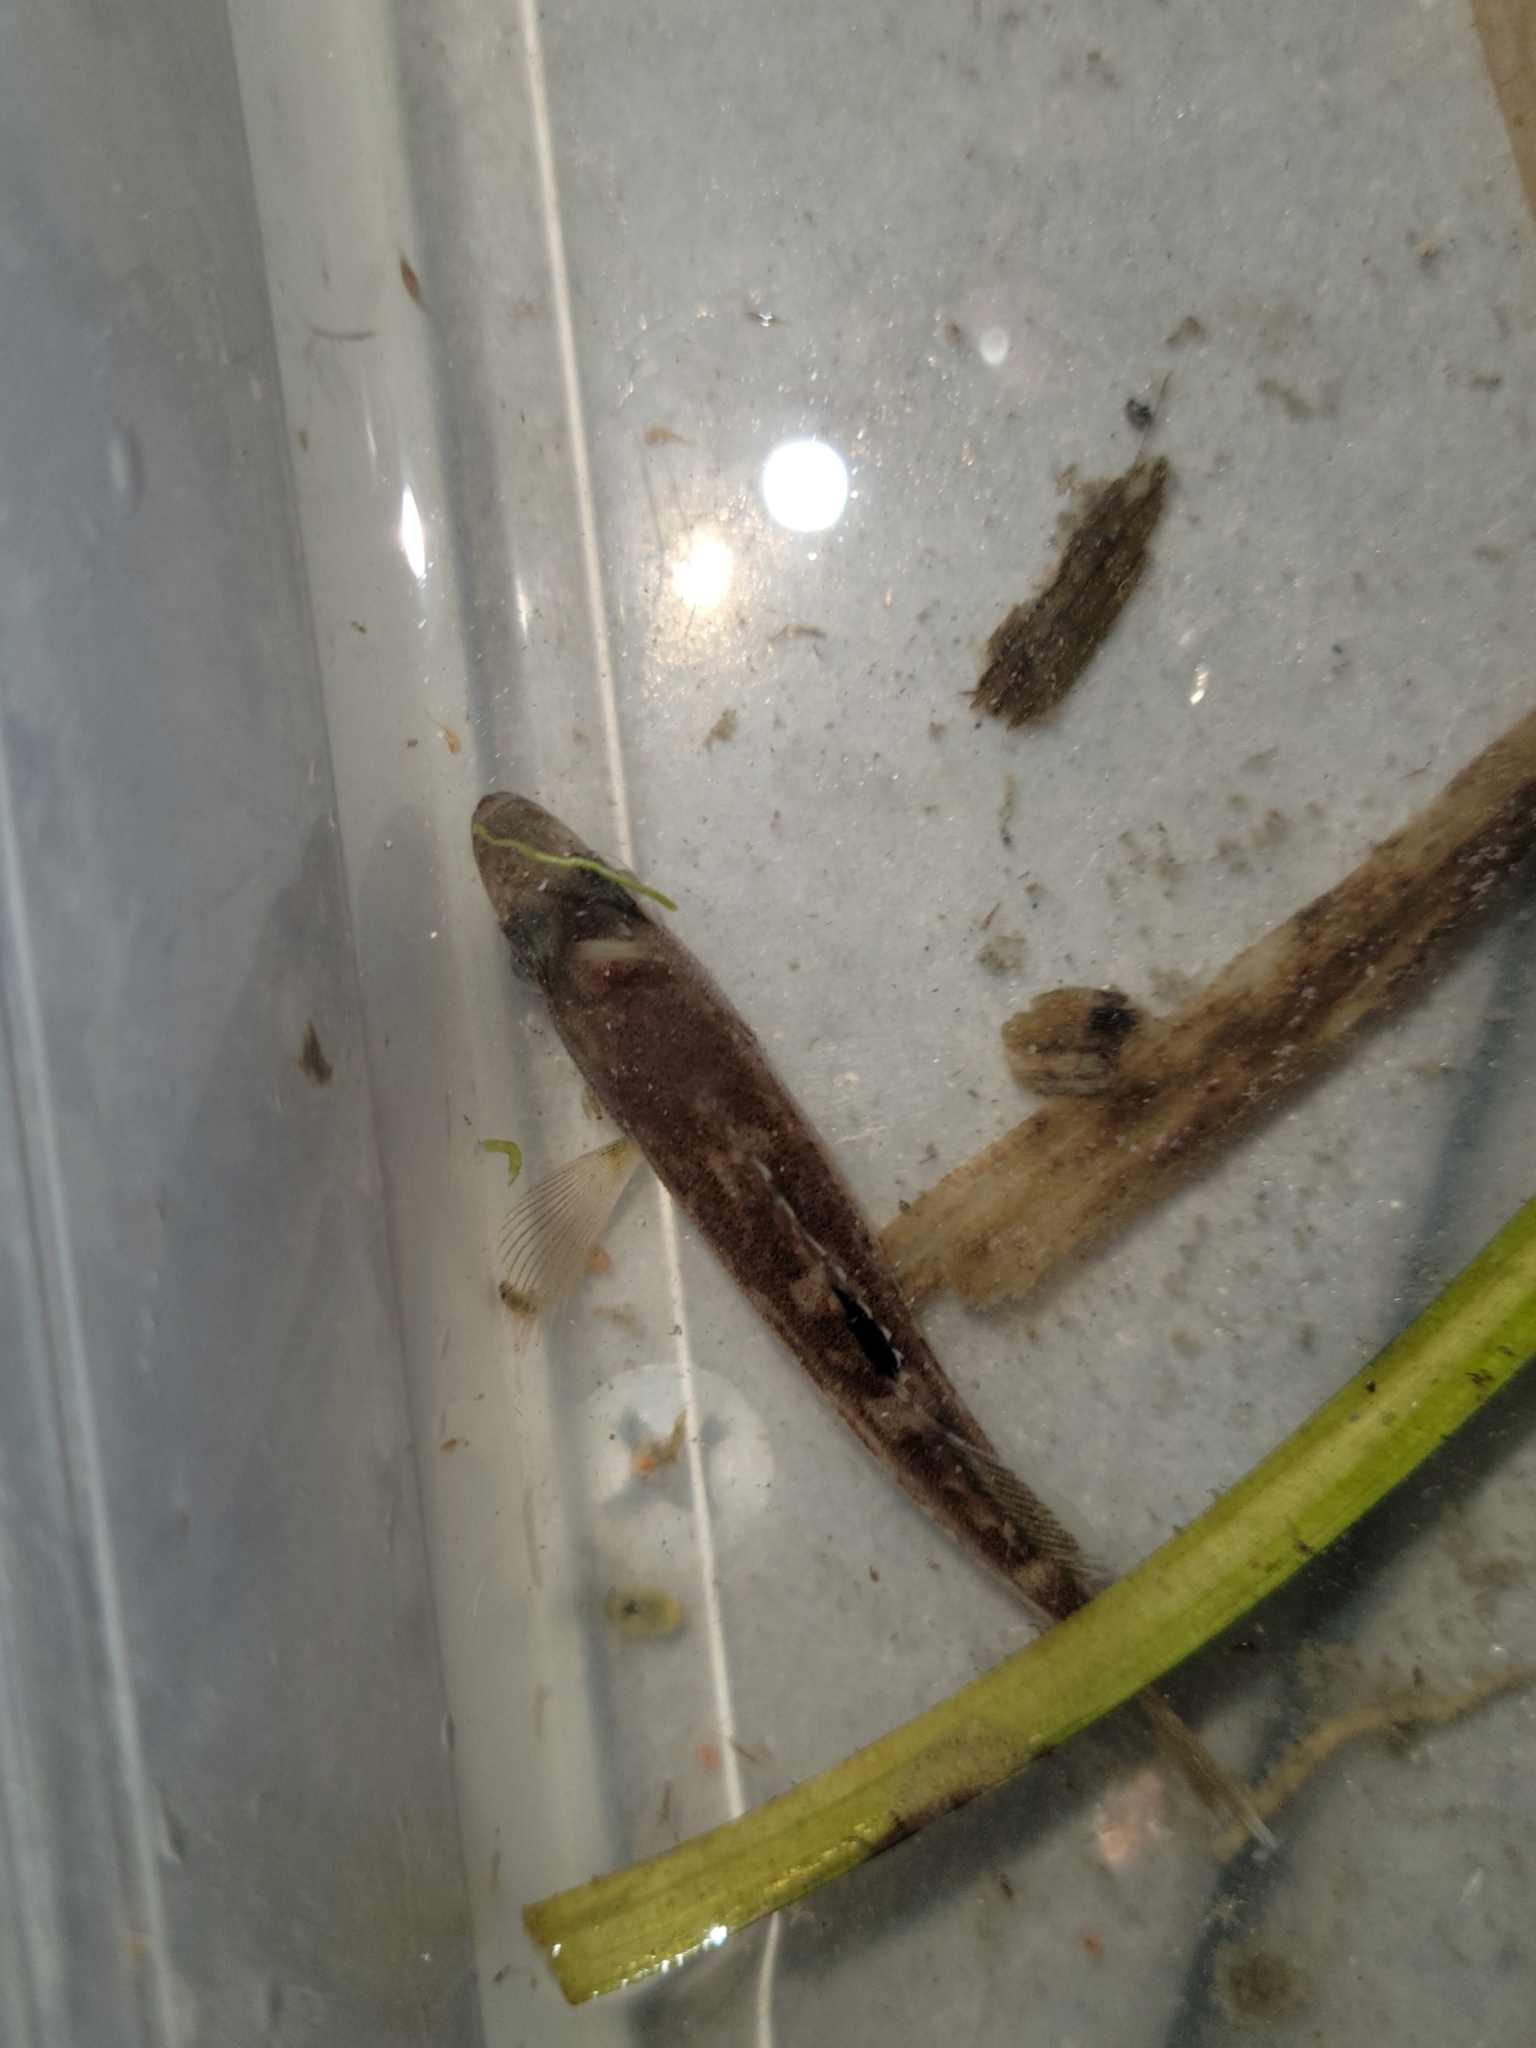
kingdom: Animalia
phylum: Chordata
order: Scorpaeniformes
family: Sebastidae
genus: Sebastes
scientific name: Sebastes melanops
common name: Black rockfish
